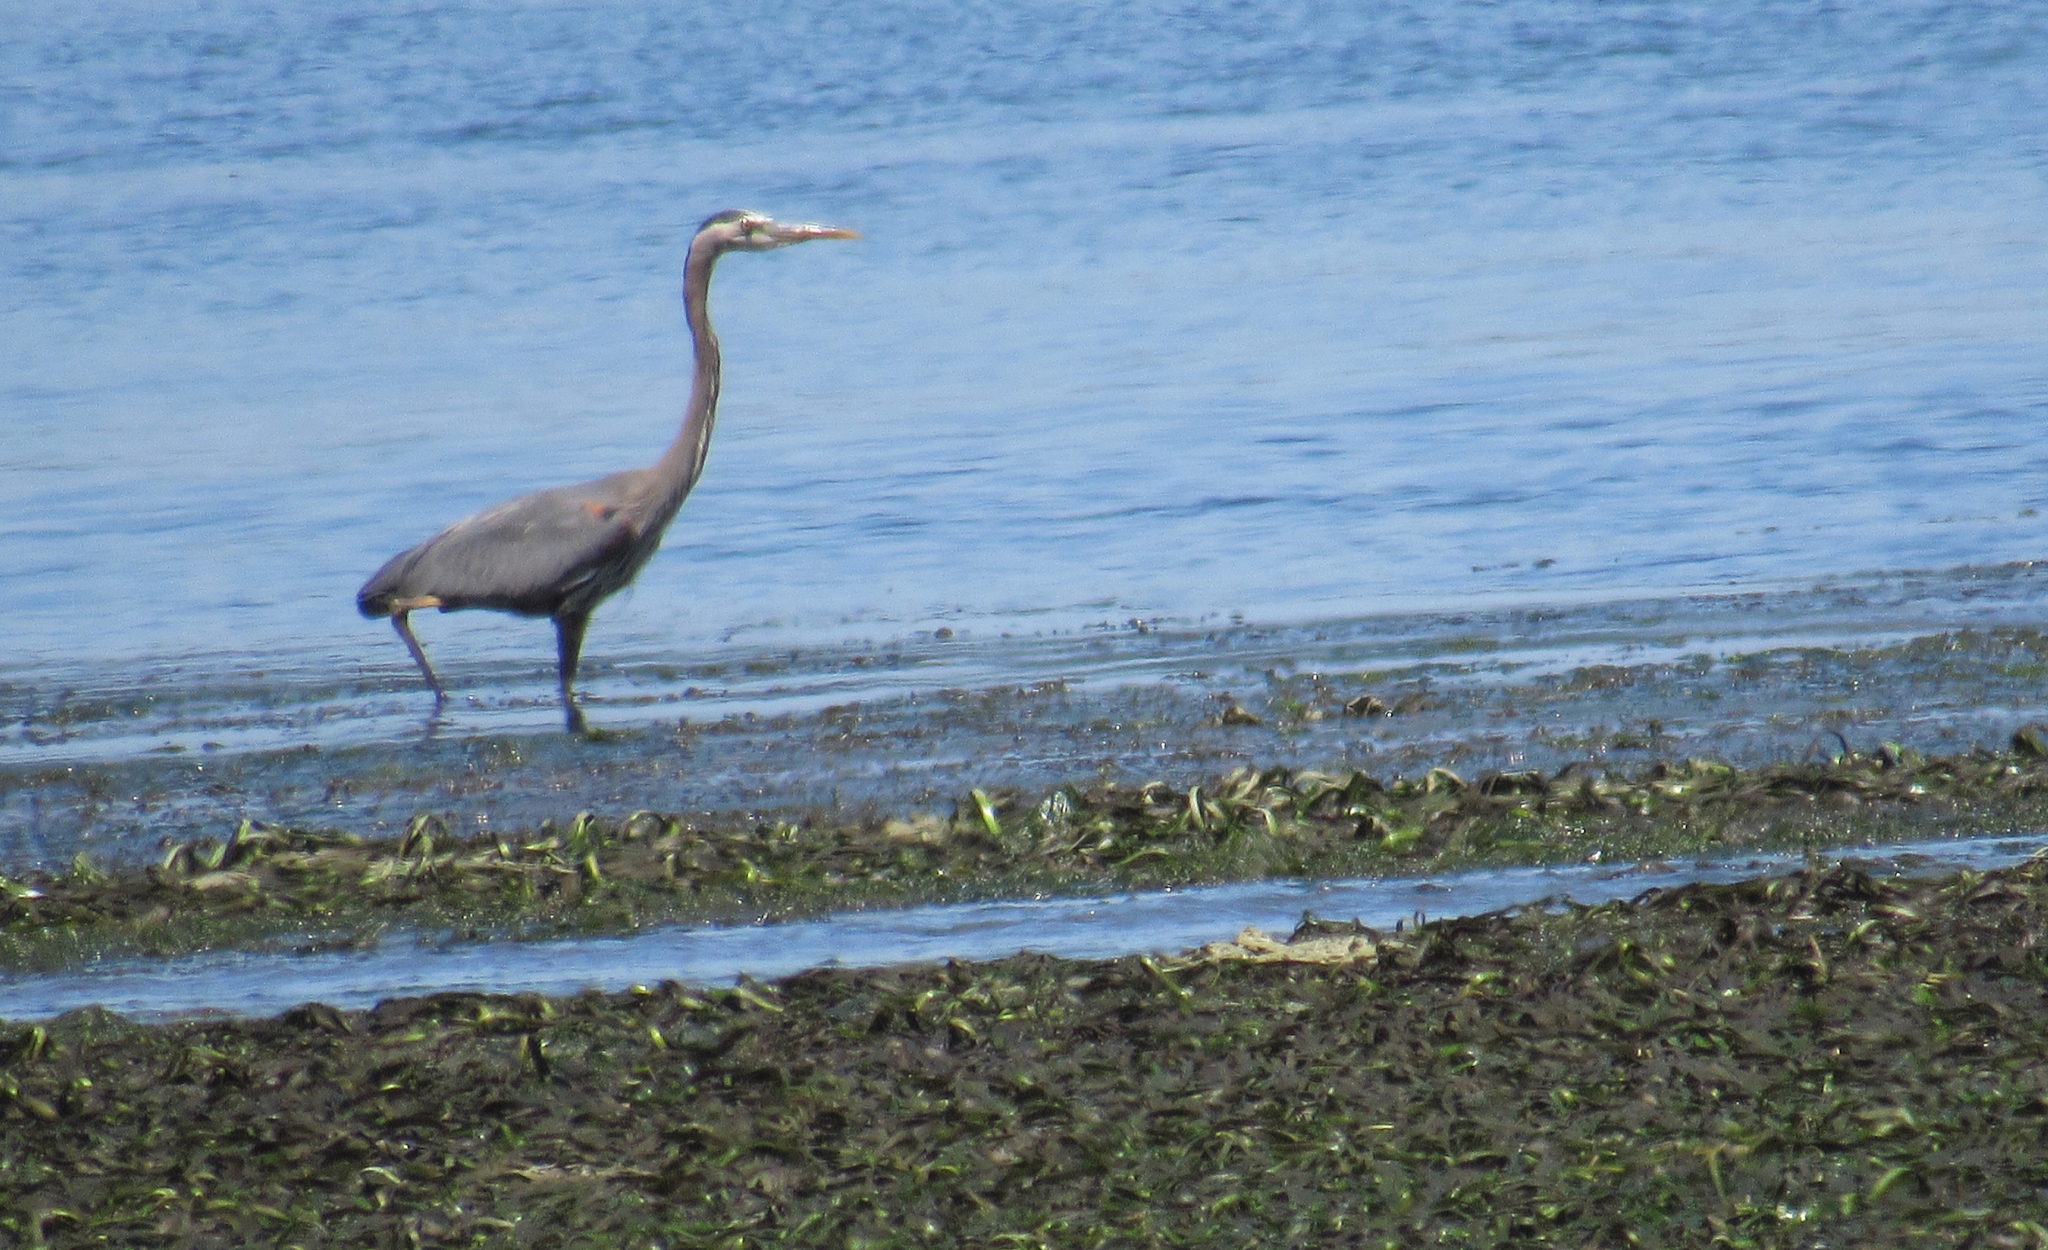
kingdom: Animalia
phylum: Chordata
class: Aves
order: Pelecaniformes
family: Ardeidae
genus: Ardea
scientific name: Ardea herodias
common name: Great blue heron
